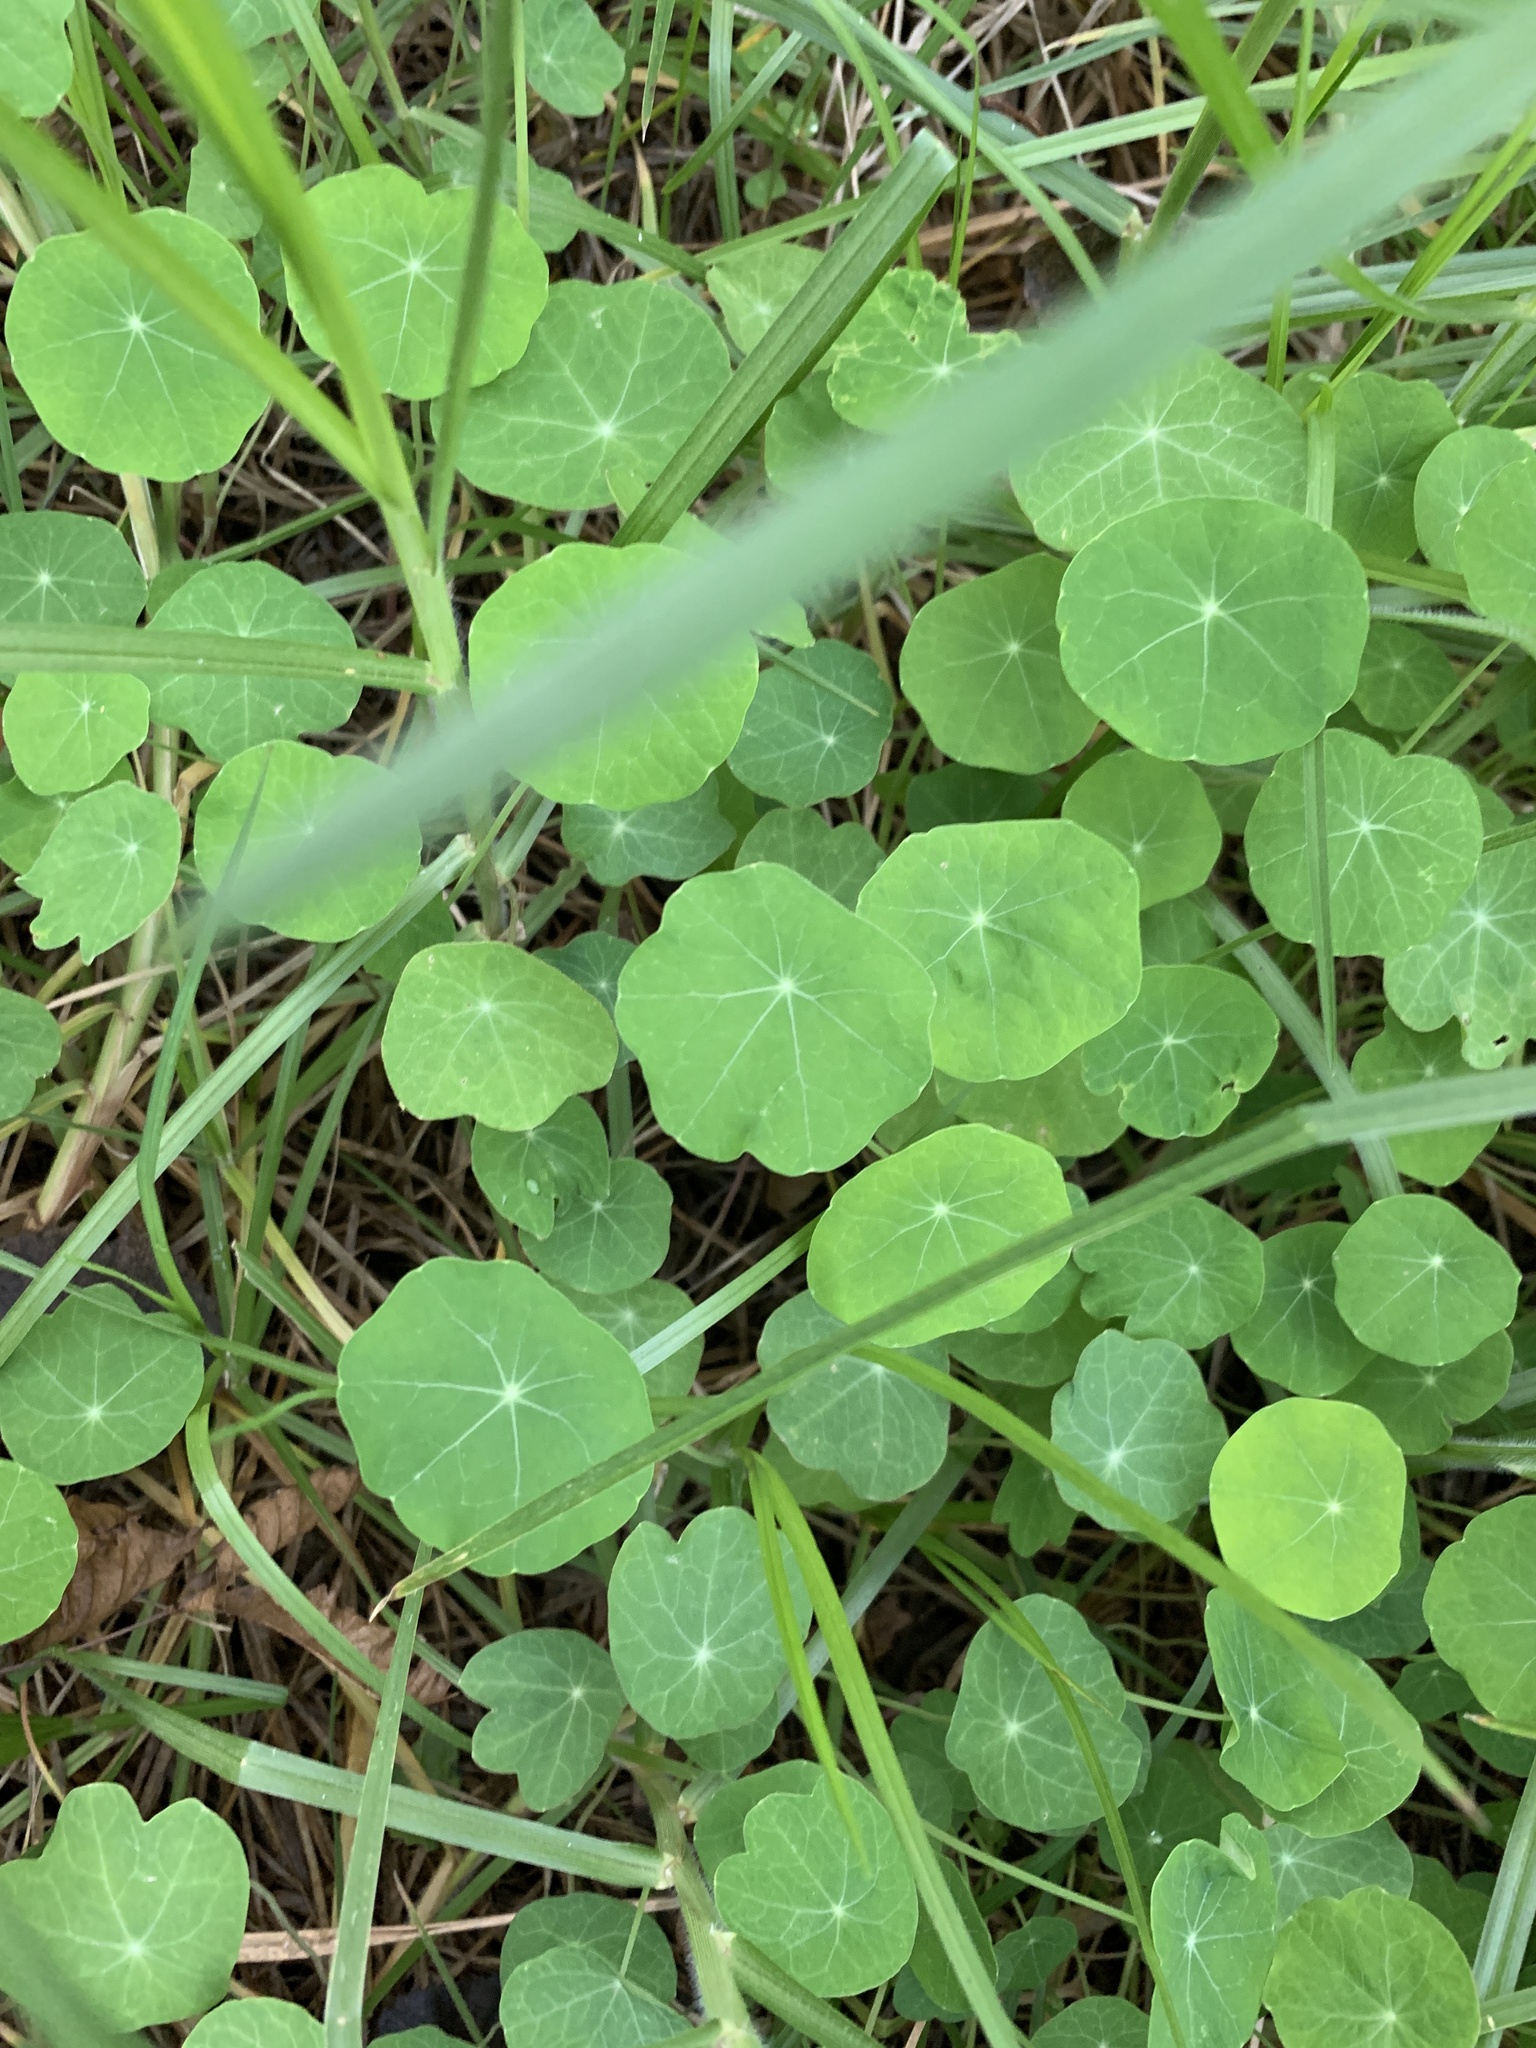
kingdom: Plantae
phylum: Tracheophyta
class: Magnoliopsida
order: Brassicales
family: Tropaeolaceae
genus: Tropaeolum
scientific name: Tropaeolum majus
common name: Nasturtium
